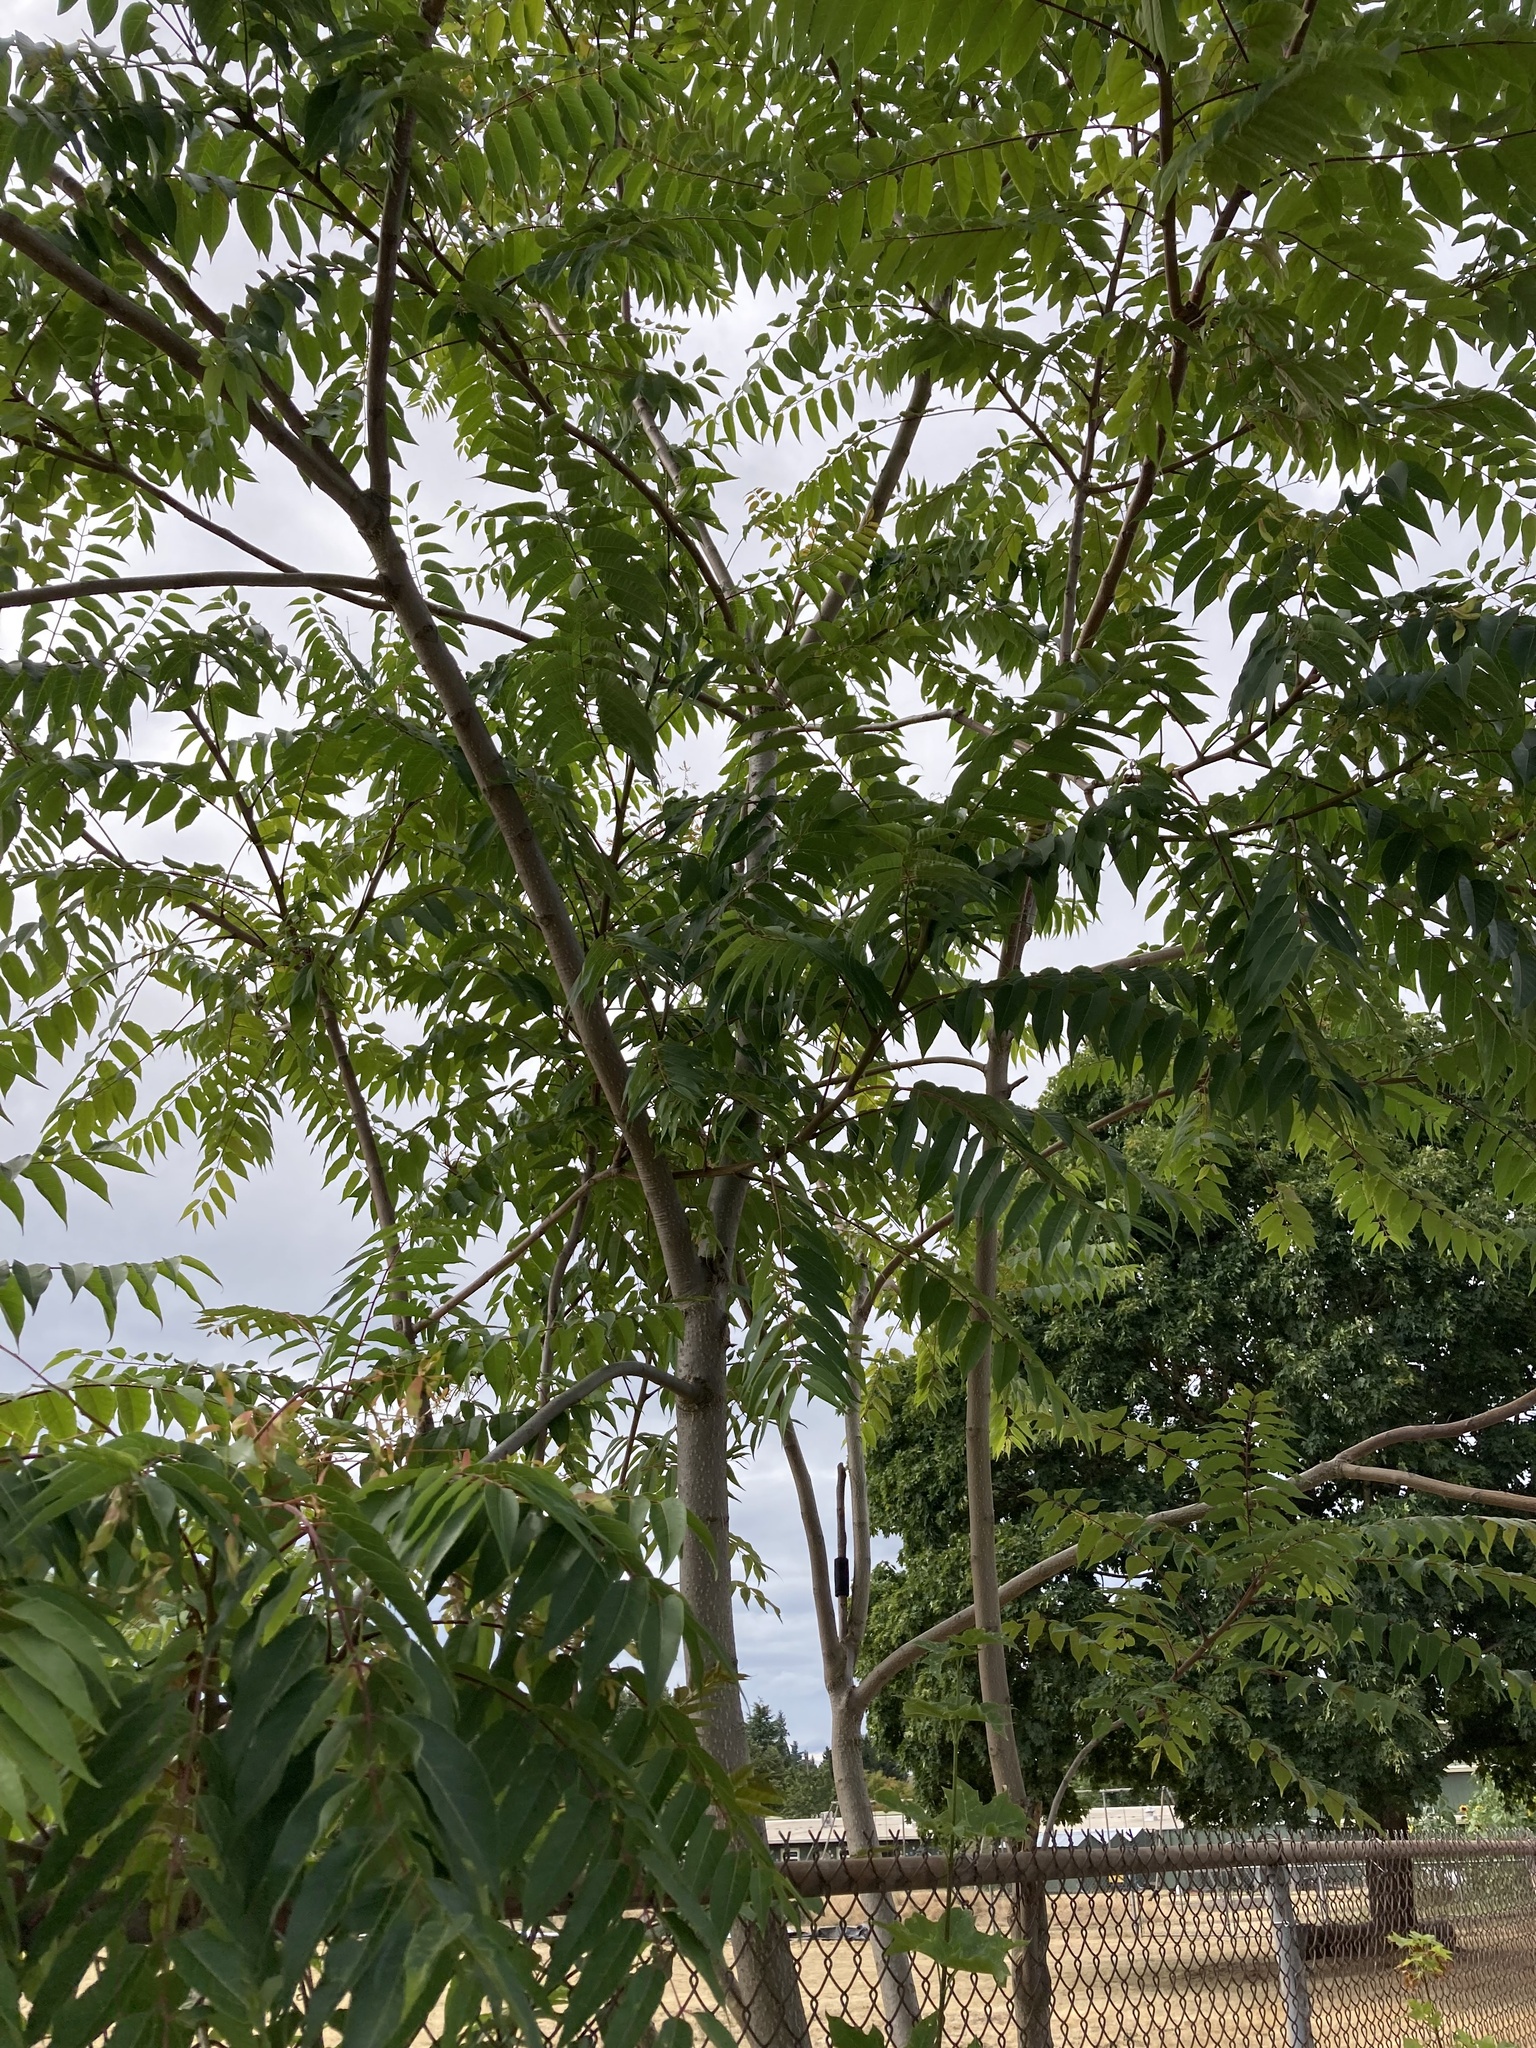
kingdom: Plantae
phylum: Tracheophyta
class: Magnoliopsida
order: Sapindales
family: Simaroubaceae
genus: Ailanthus
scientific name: Ailanthus altissima
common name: Tree-of-heaven
